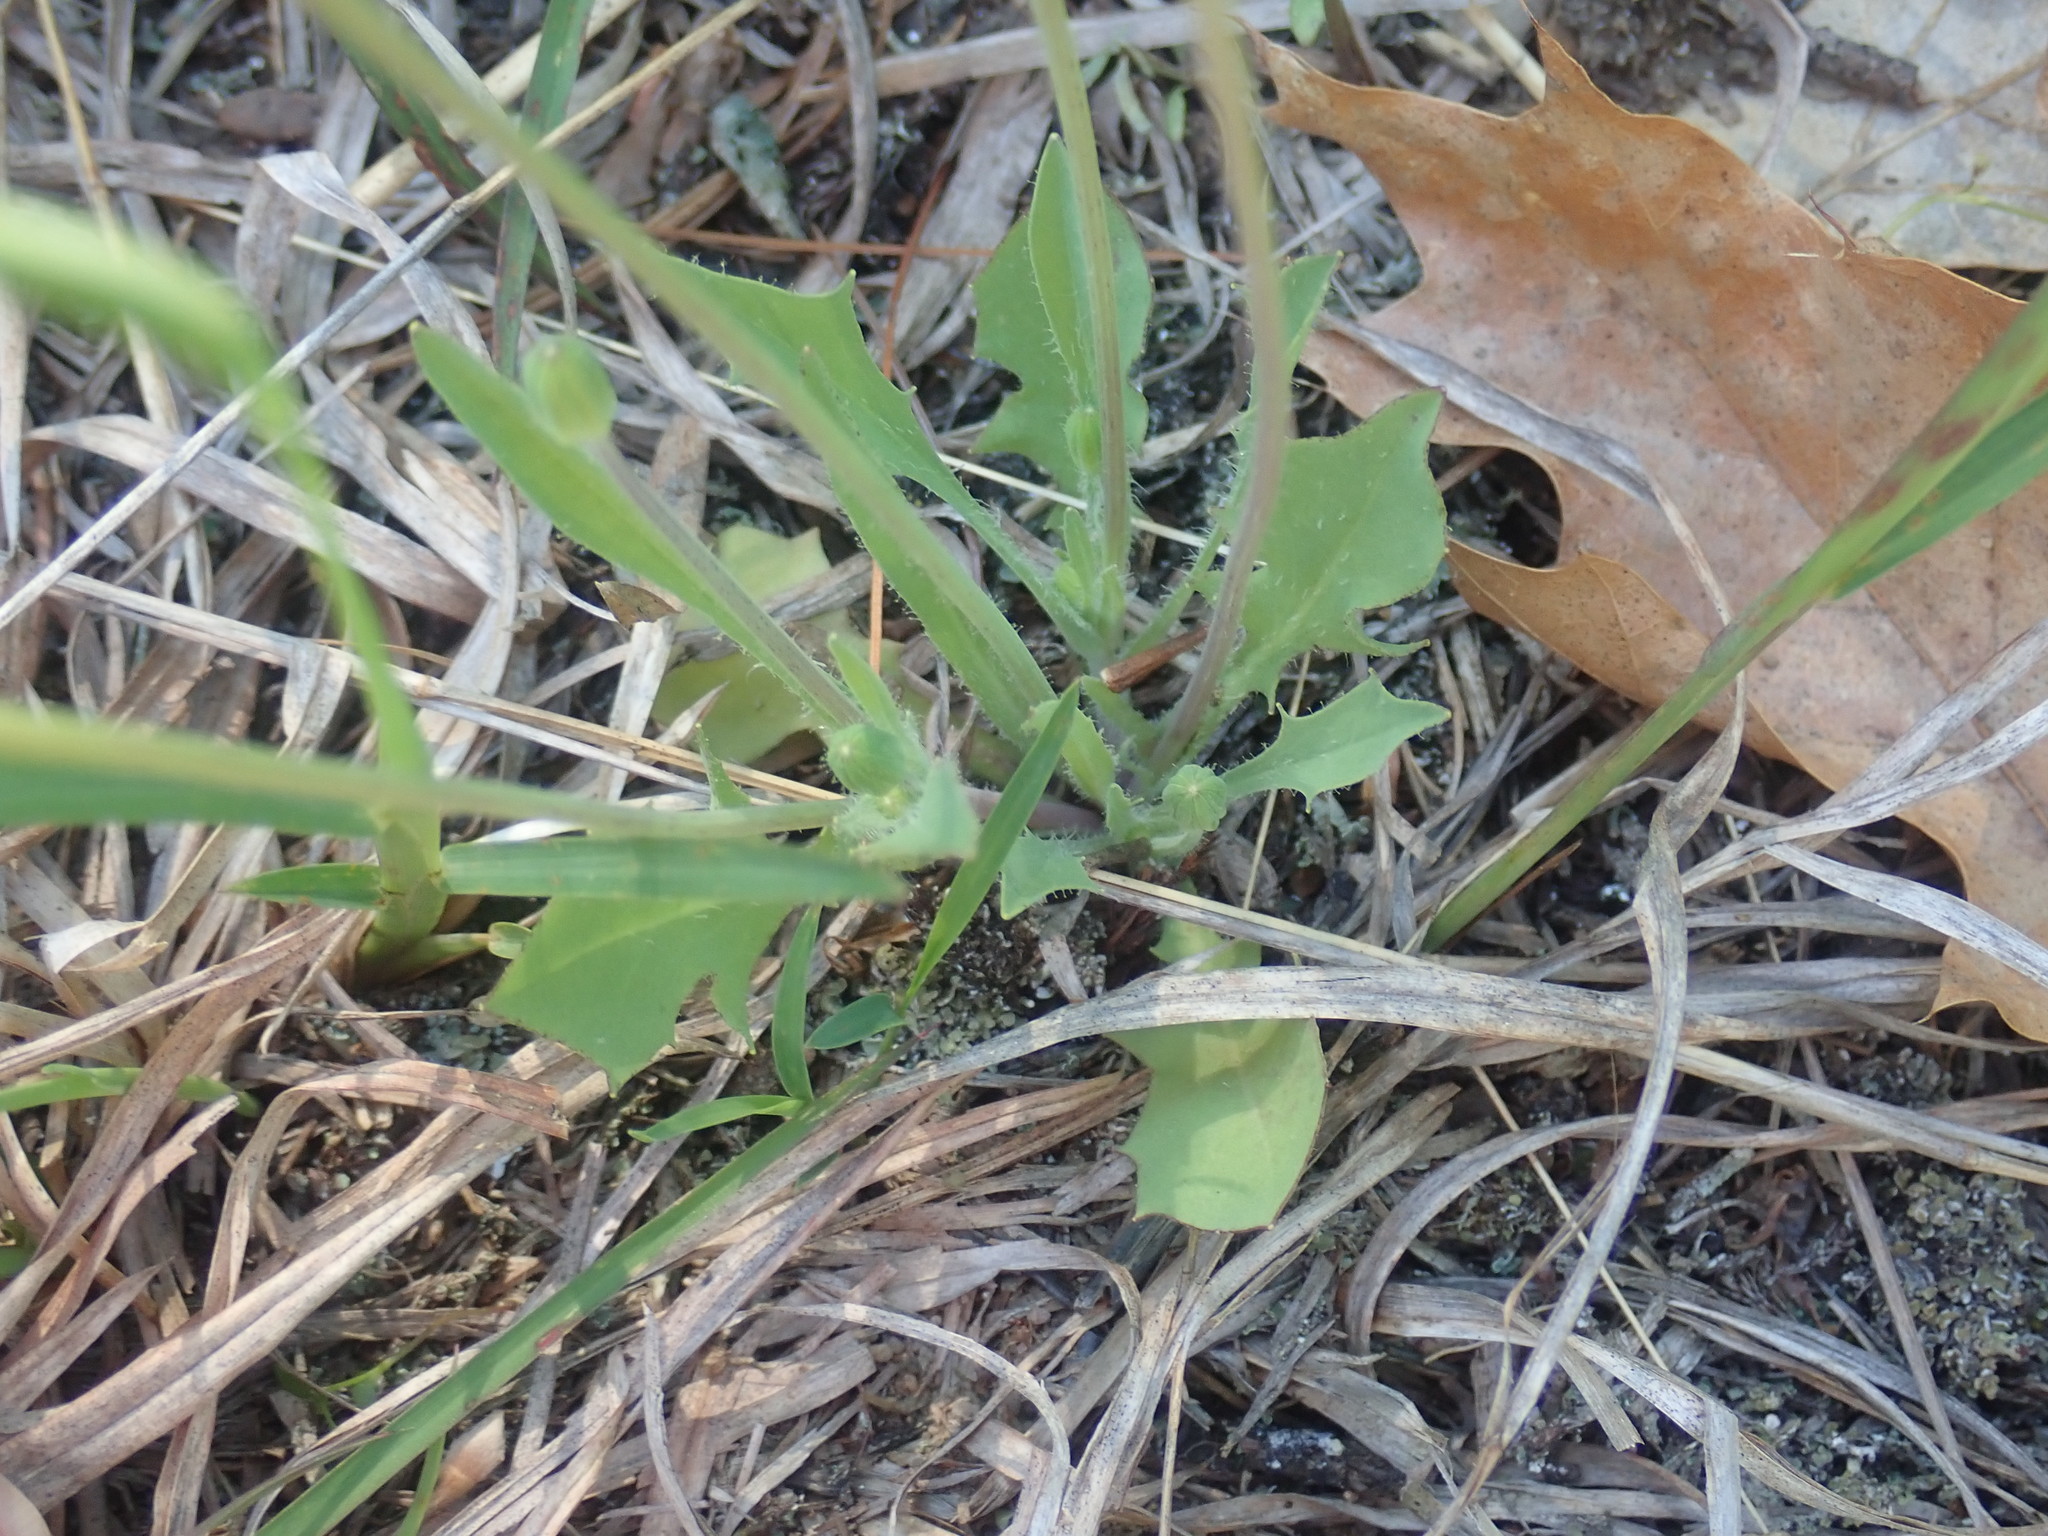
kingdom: Plantae
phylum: Tracheophyta
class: Magnoliopsida
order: Asterales
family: Asteraceae
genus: Krigia
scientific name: Krigia virginica
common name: Virginia dwarf-dandelion
